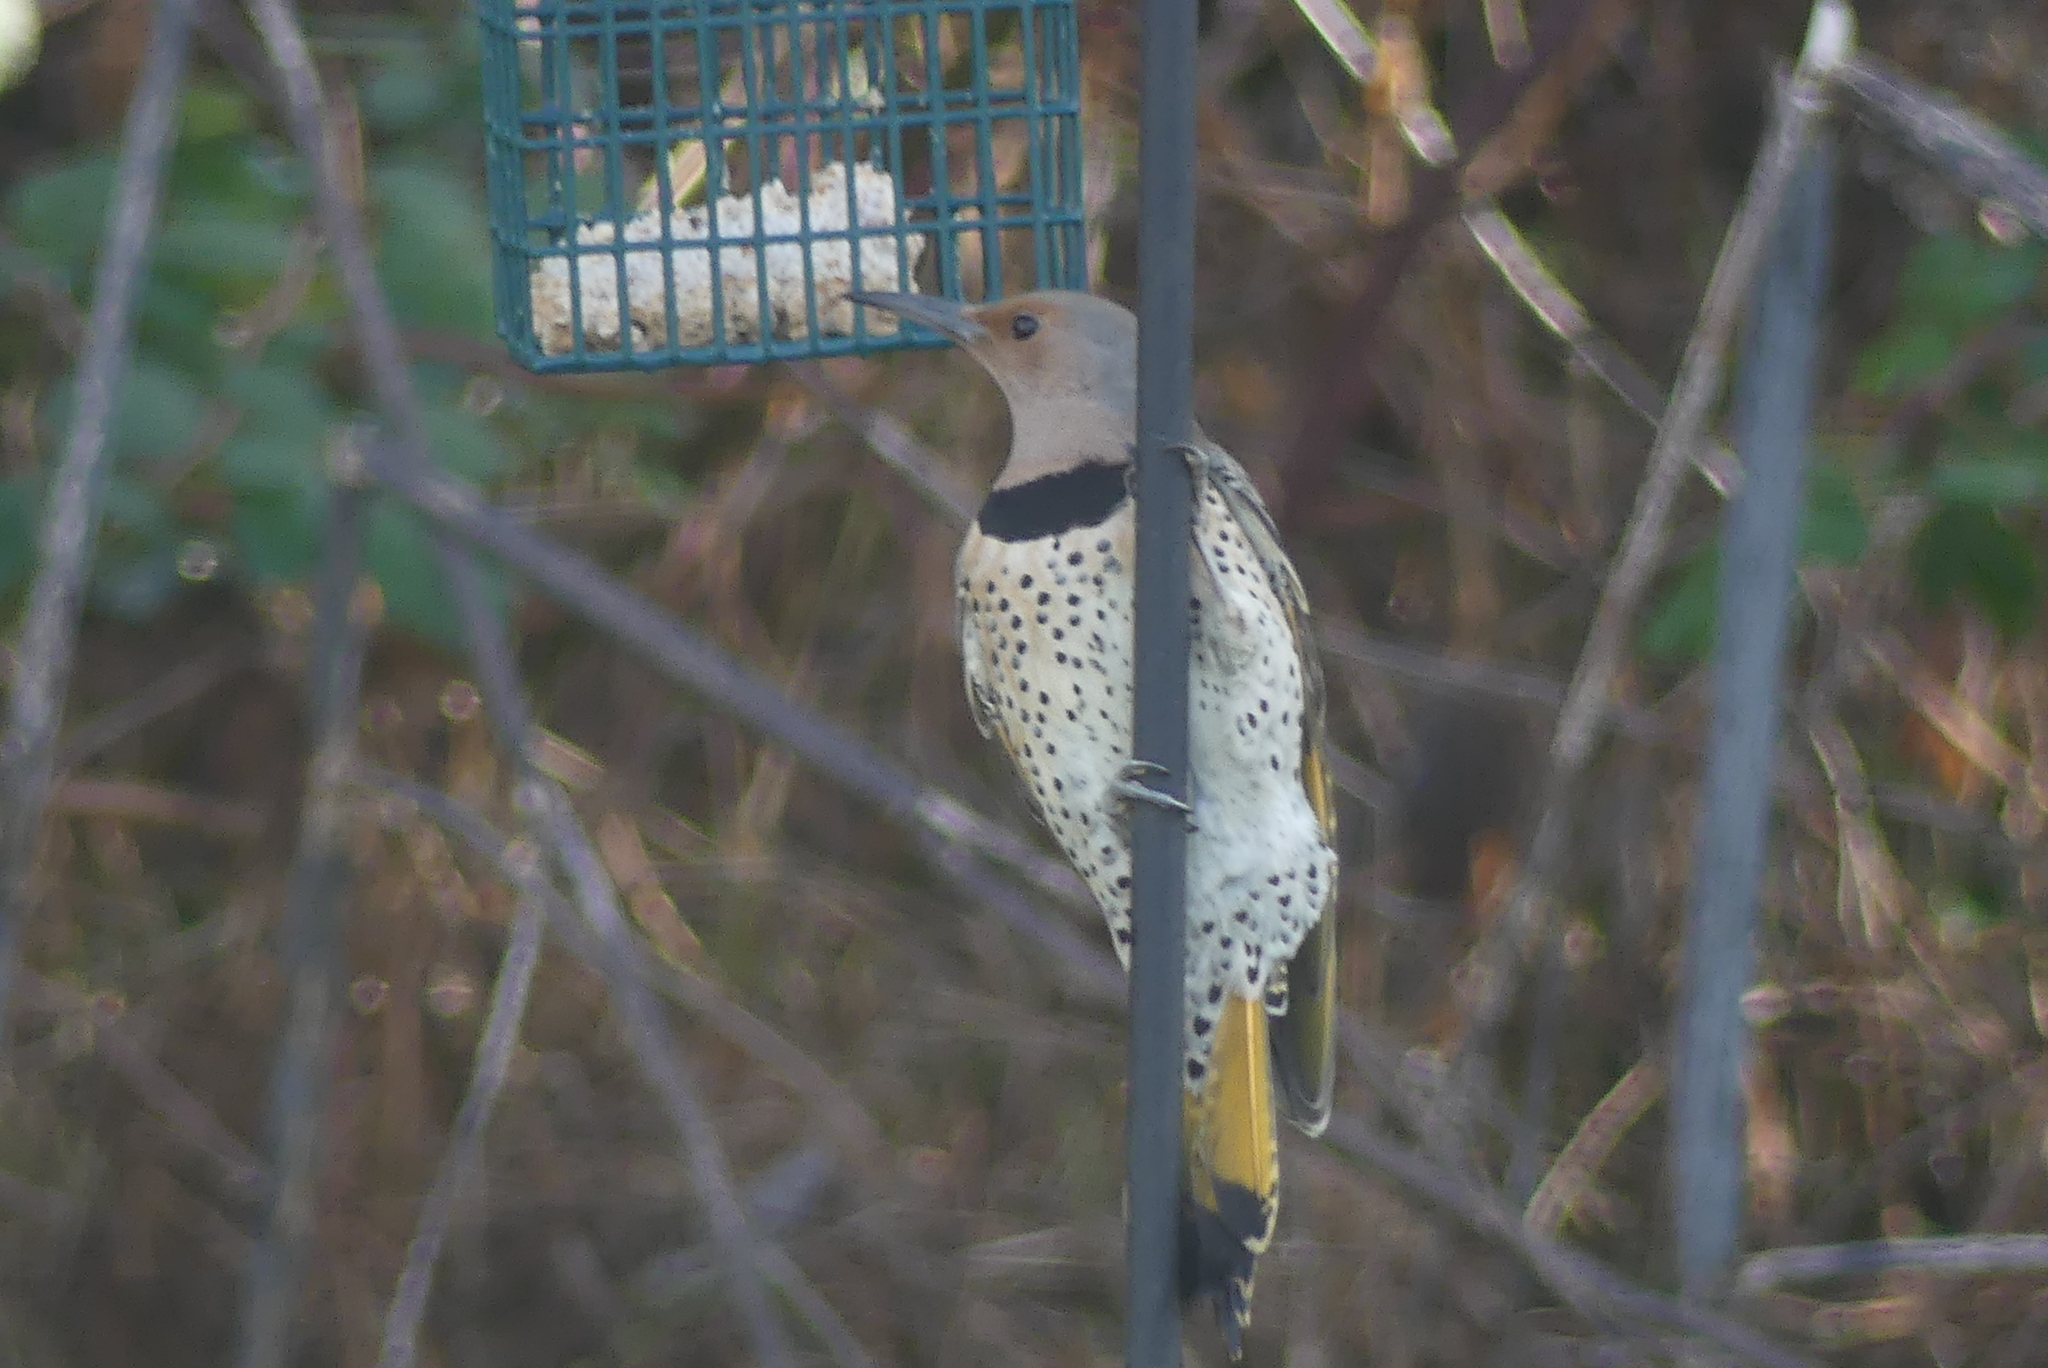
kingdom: Animalia
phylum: Chordata
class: Aves
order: Piciformes
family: Picidae
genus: Colaptes
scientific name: Colaptes auratus
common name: Northern flicker
